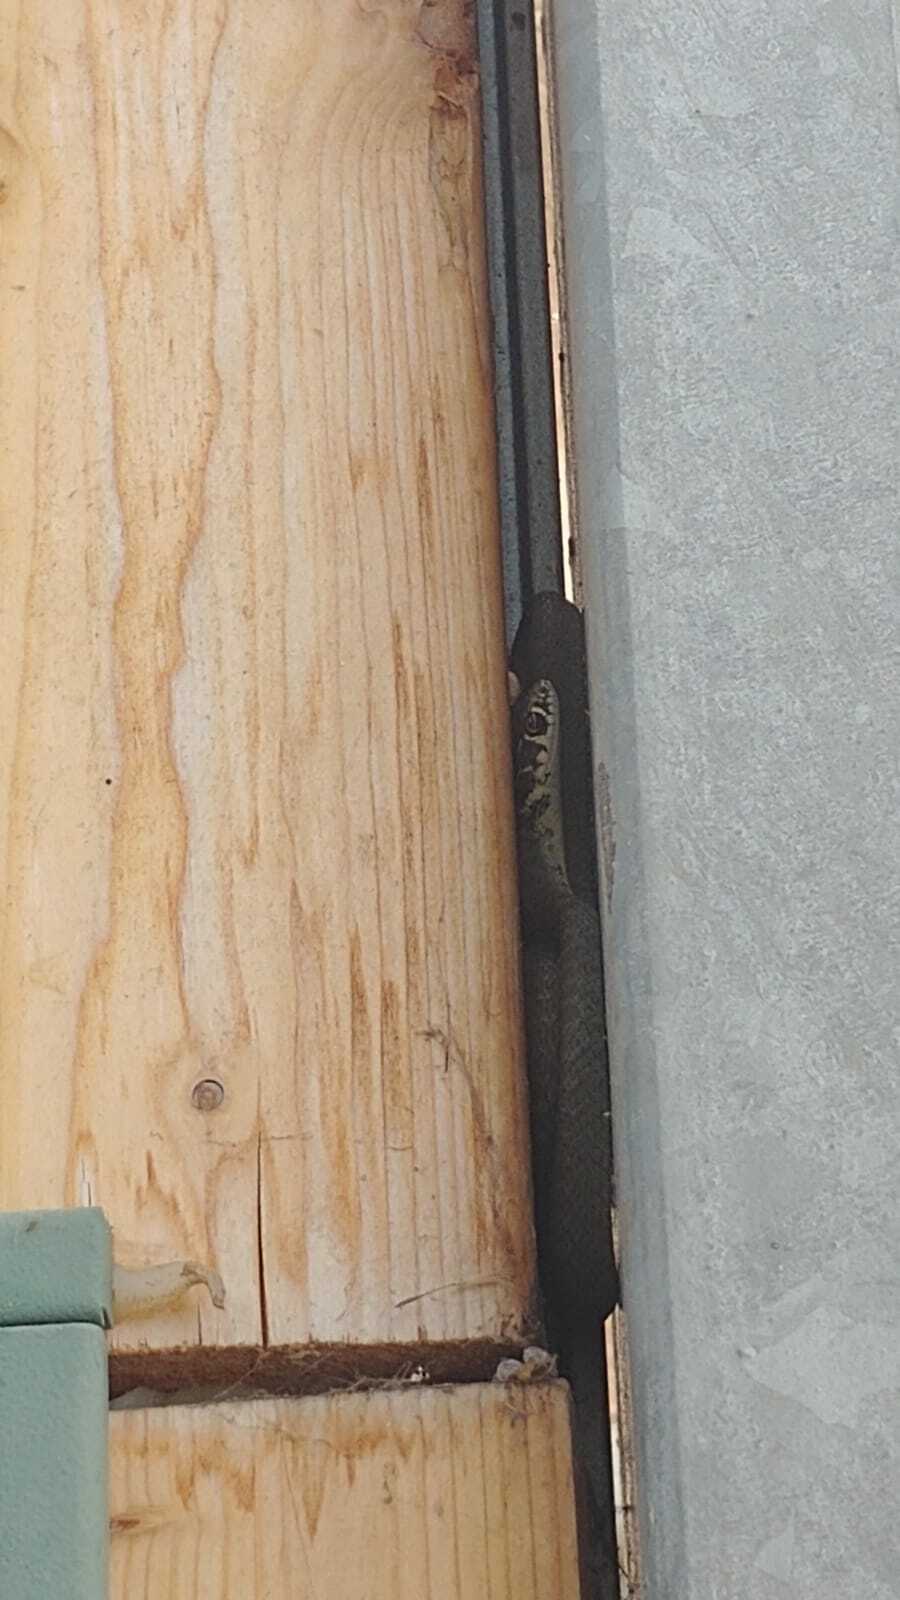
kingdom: Animalia
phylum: Chordata
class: Squamata
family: Colubridae
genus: Hierophis
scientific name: Hierophis viridiflavus
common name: Green whip snake
